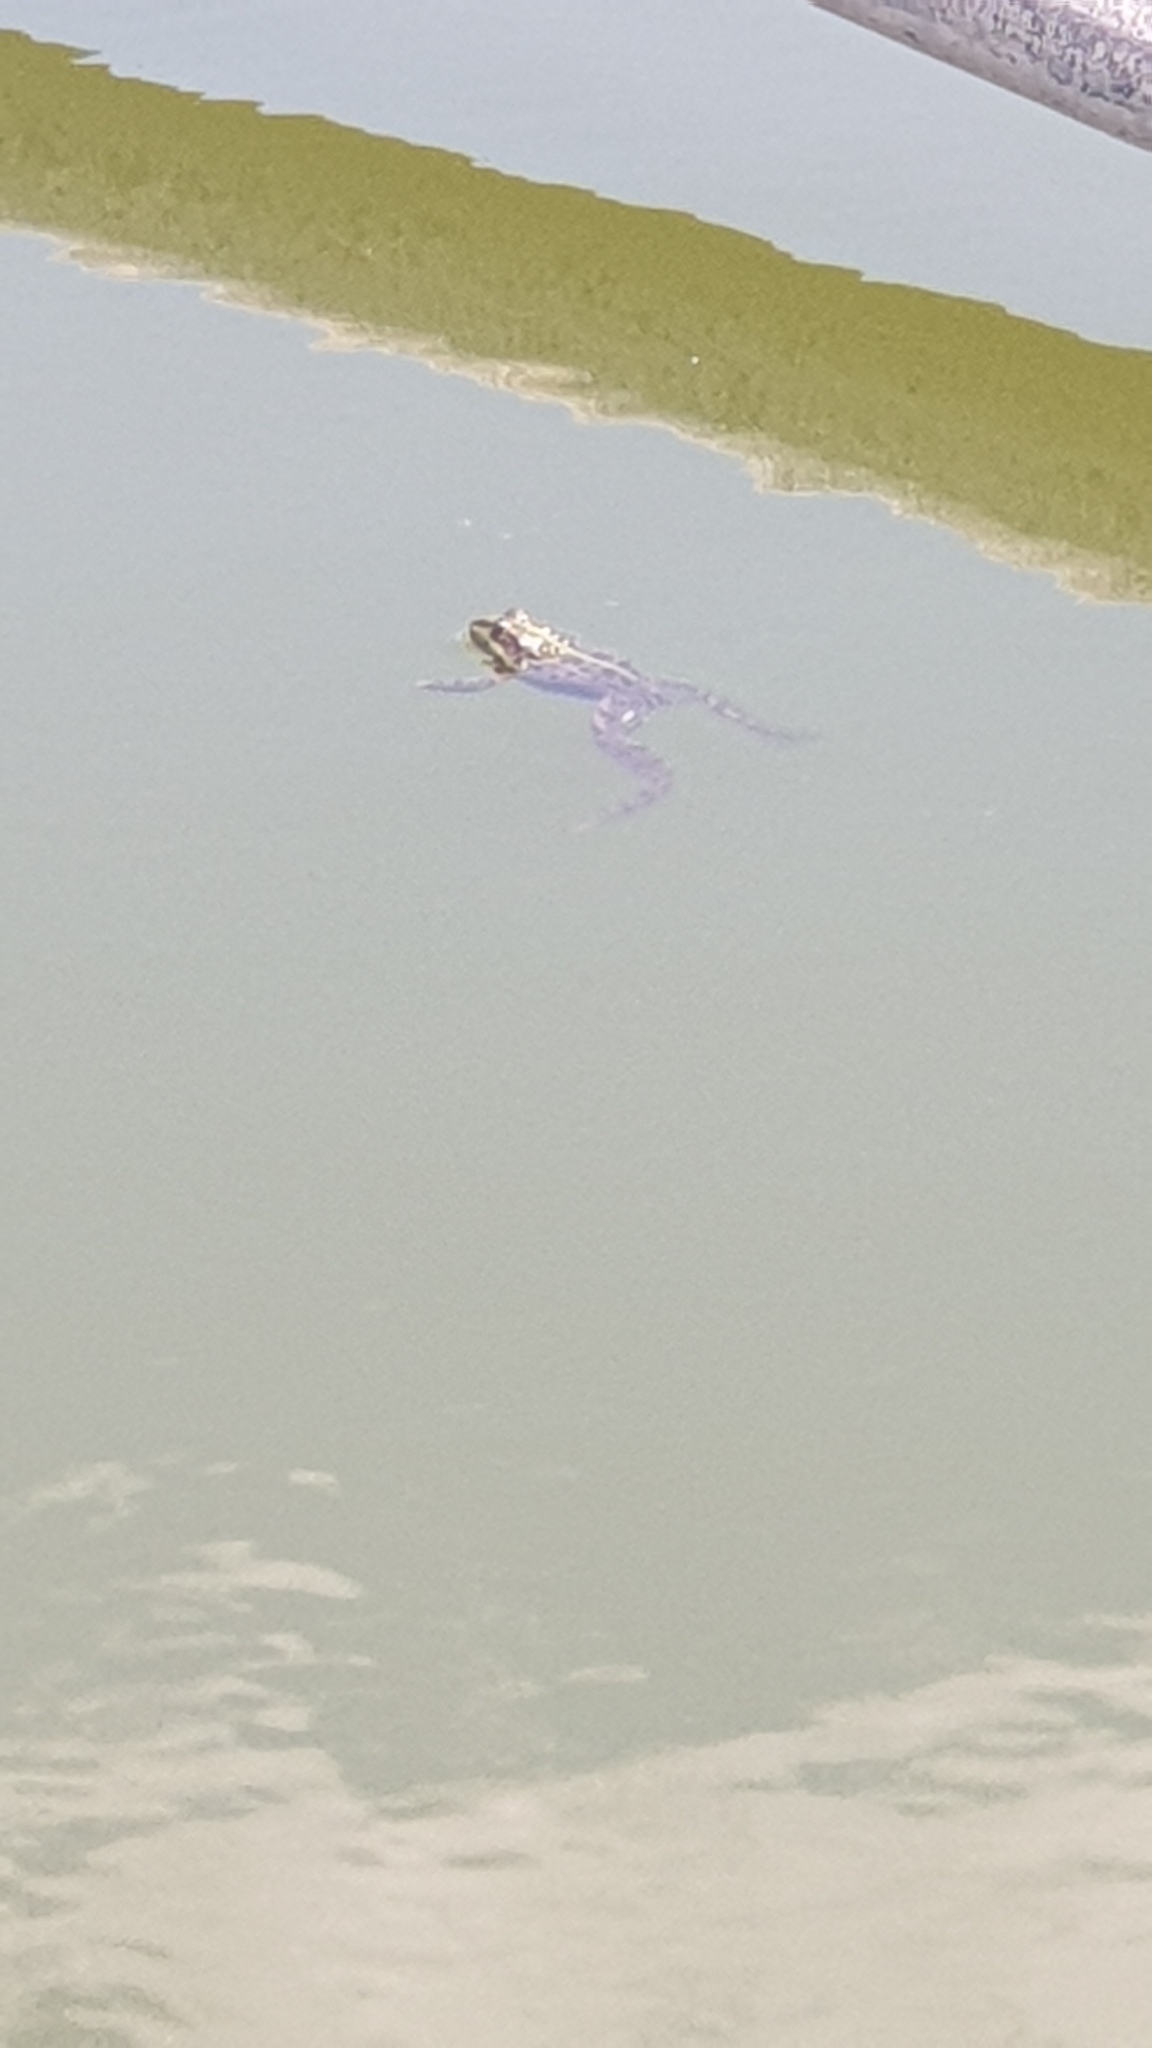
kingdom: Animalia
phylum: Chordata
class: Amphibia
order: Anura
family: Ranidae
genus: Pelophylax
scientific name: Pelophylax ridibundus
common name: Marsh frog
